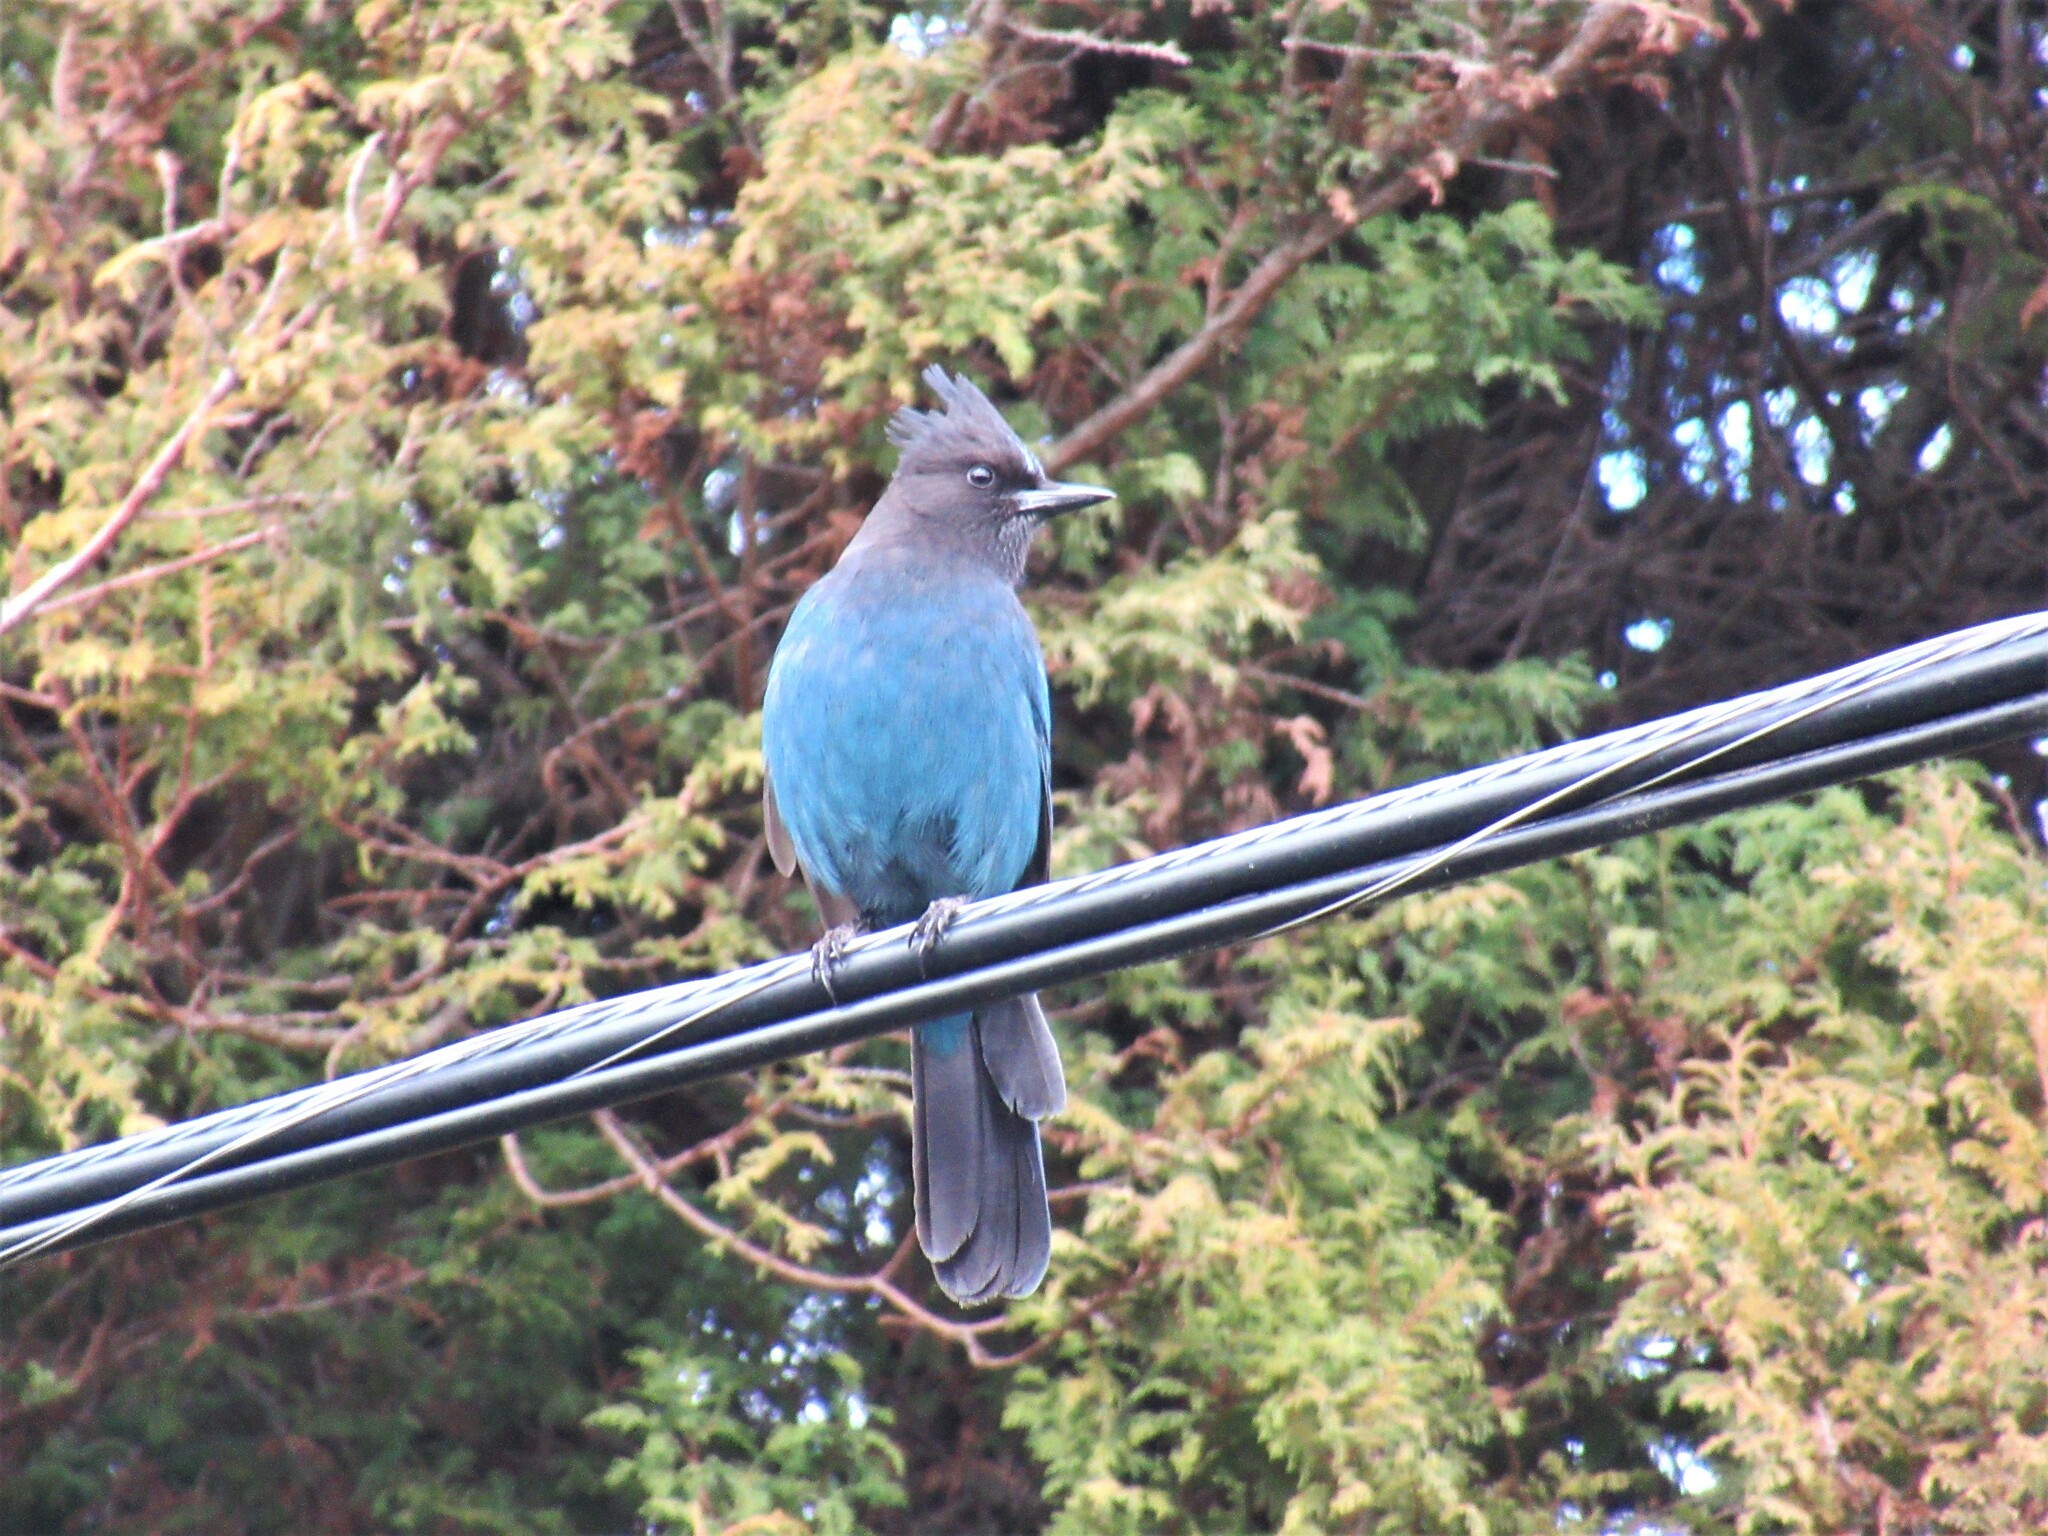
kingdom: Animalia
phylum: Chordata
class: Aves
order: Passeriformes
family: Corvidae
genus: Cyanocitta
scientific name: Cyanocitta stelleri
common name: Steller's jay
